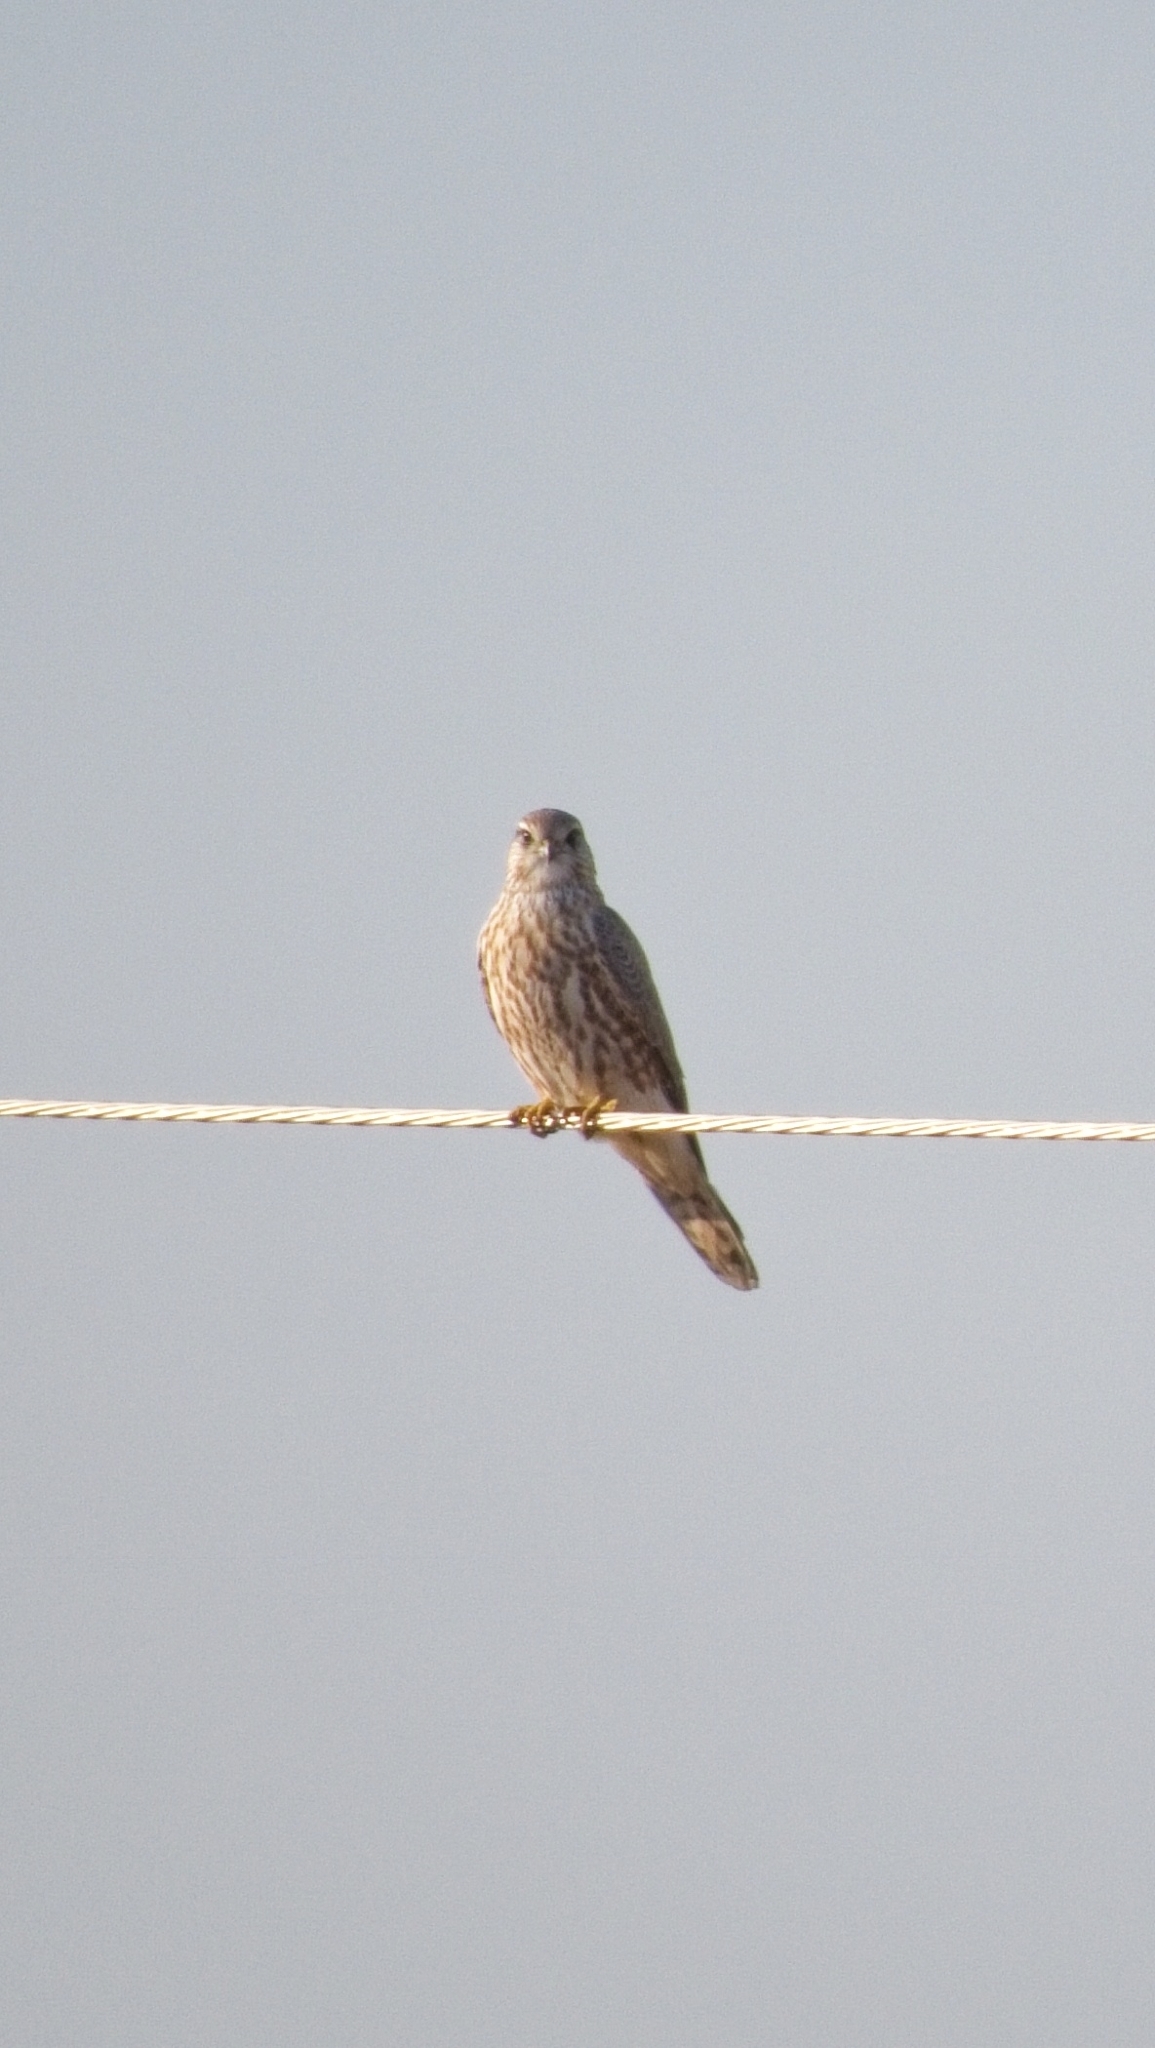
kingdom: Animalia
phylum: Chordata
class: Aves
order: Falconiformes
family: Falconidae
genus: Falco
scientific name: Falco columbarius
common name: Merlin
